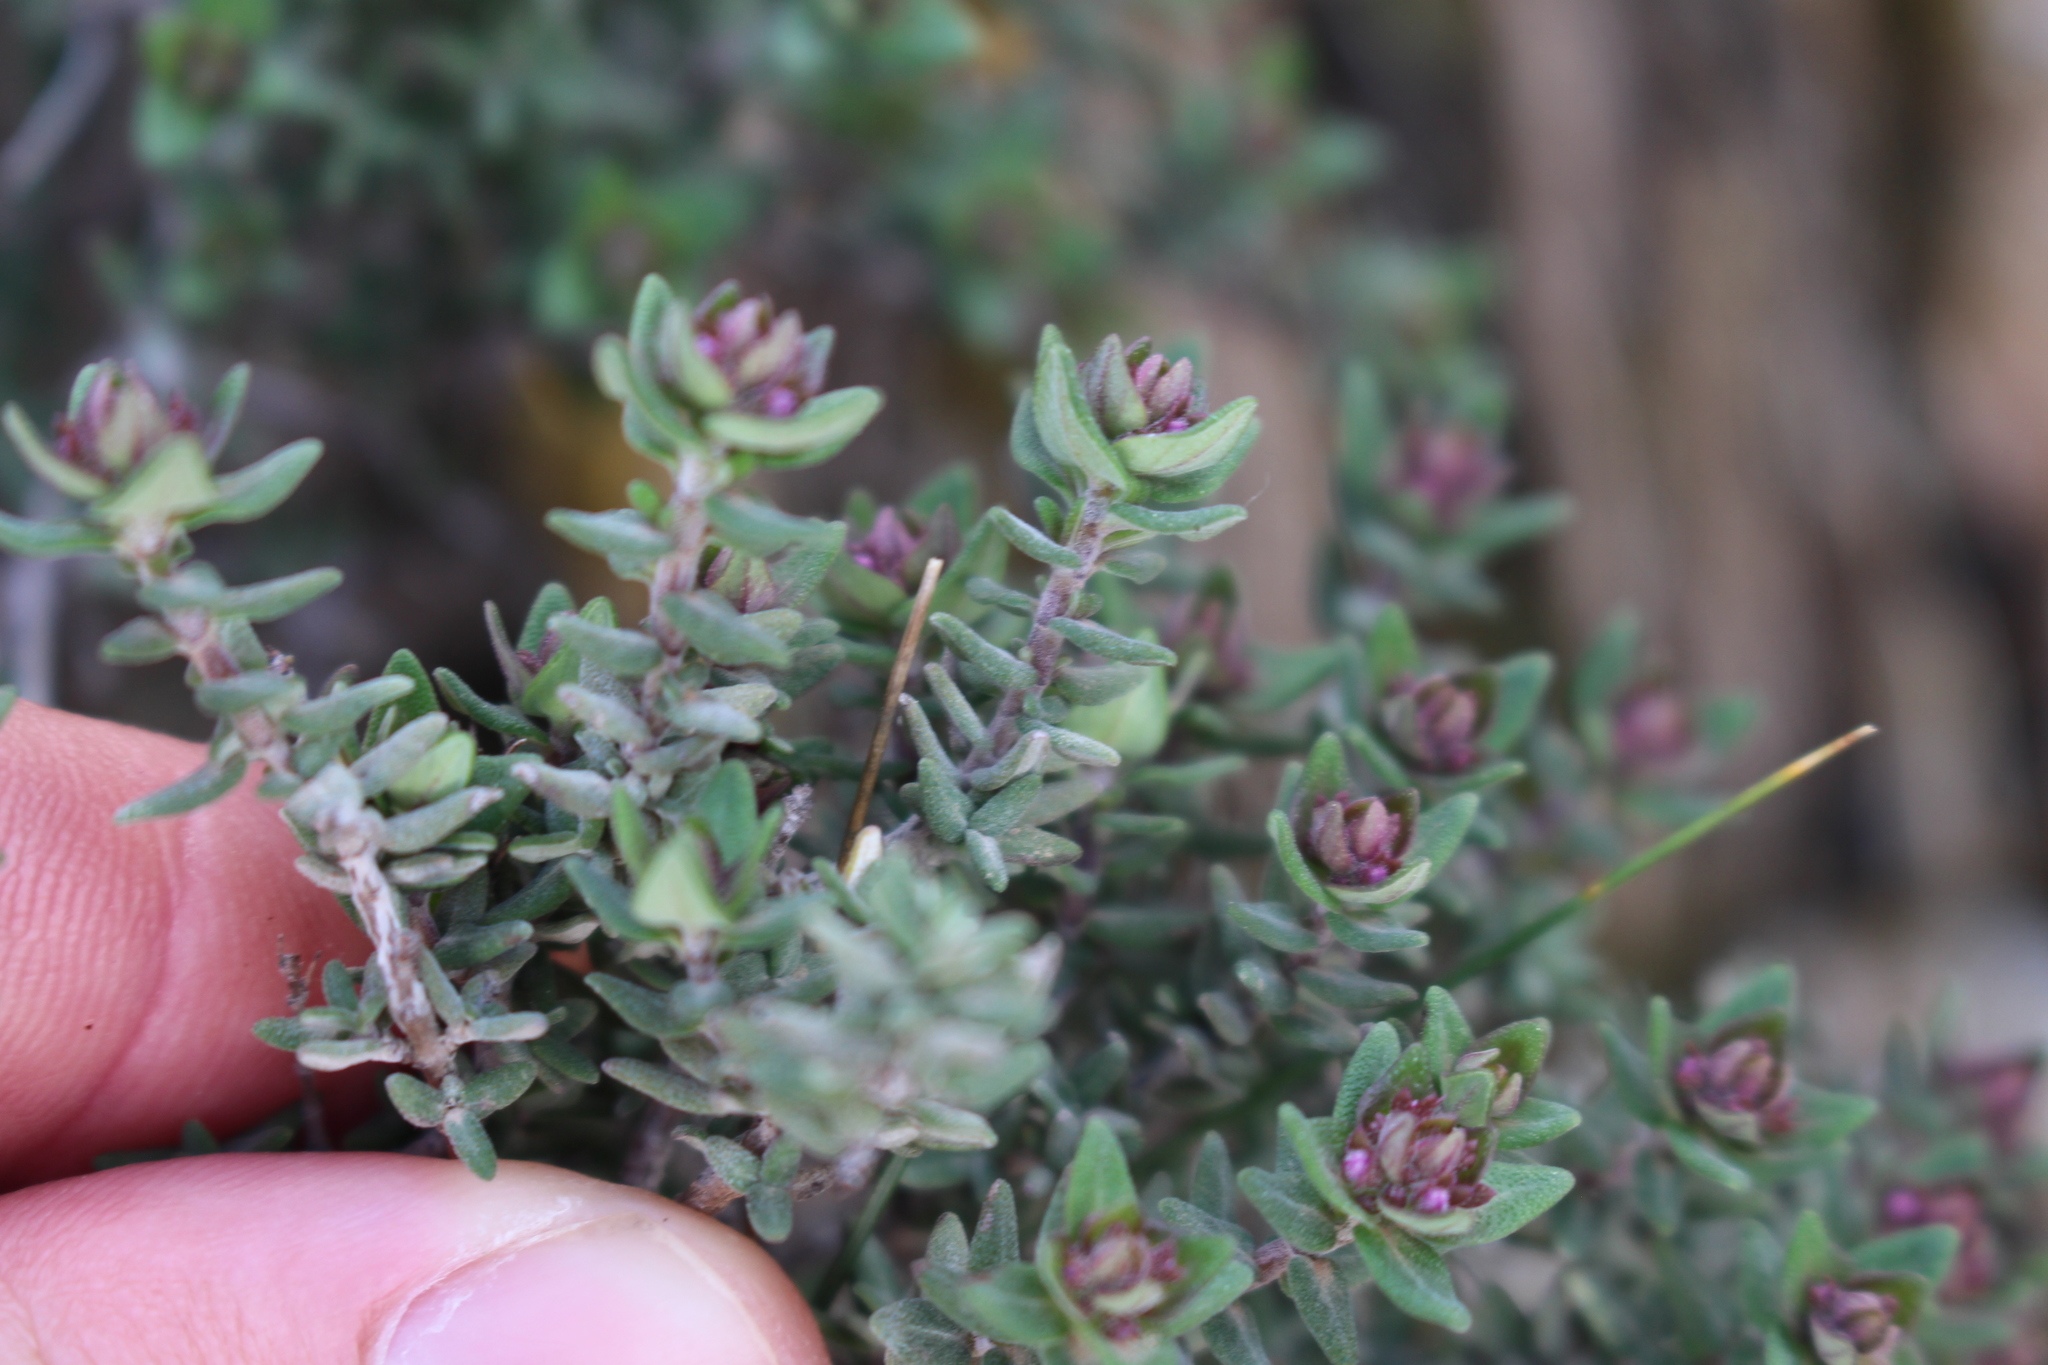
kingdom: Plantae
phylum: Tracheophyta
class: Magnoliopsida
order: Lamiales
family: Lamiaceae
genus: Thymus
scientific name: Thymus vulgaris
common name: Garden thyme
